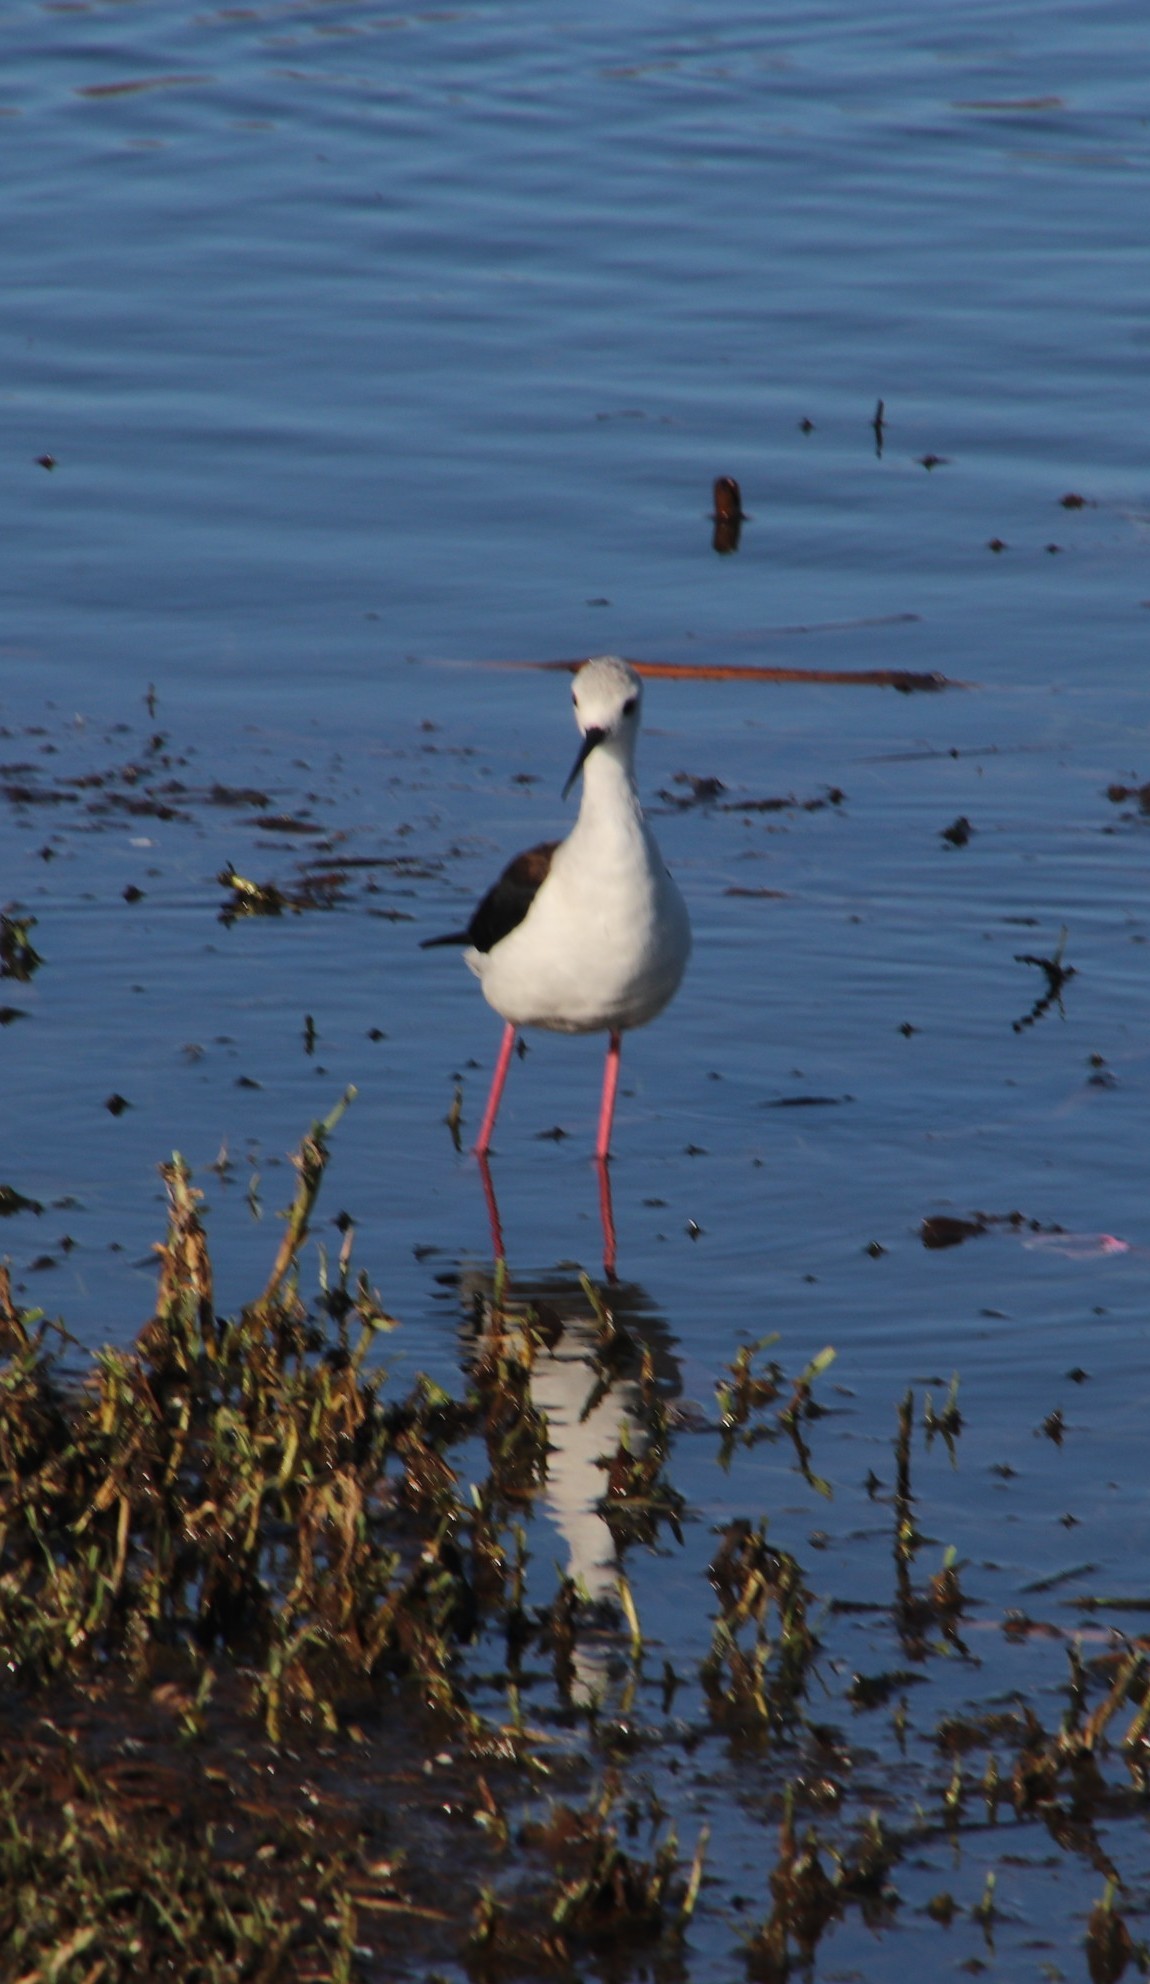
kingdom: Animalia
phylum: Chordata
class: Aves
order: Charadriiformes
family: Recurvirostridae
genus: Himantopus
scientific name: Himantopus himantopus
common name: Black-winged stilt
